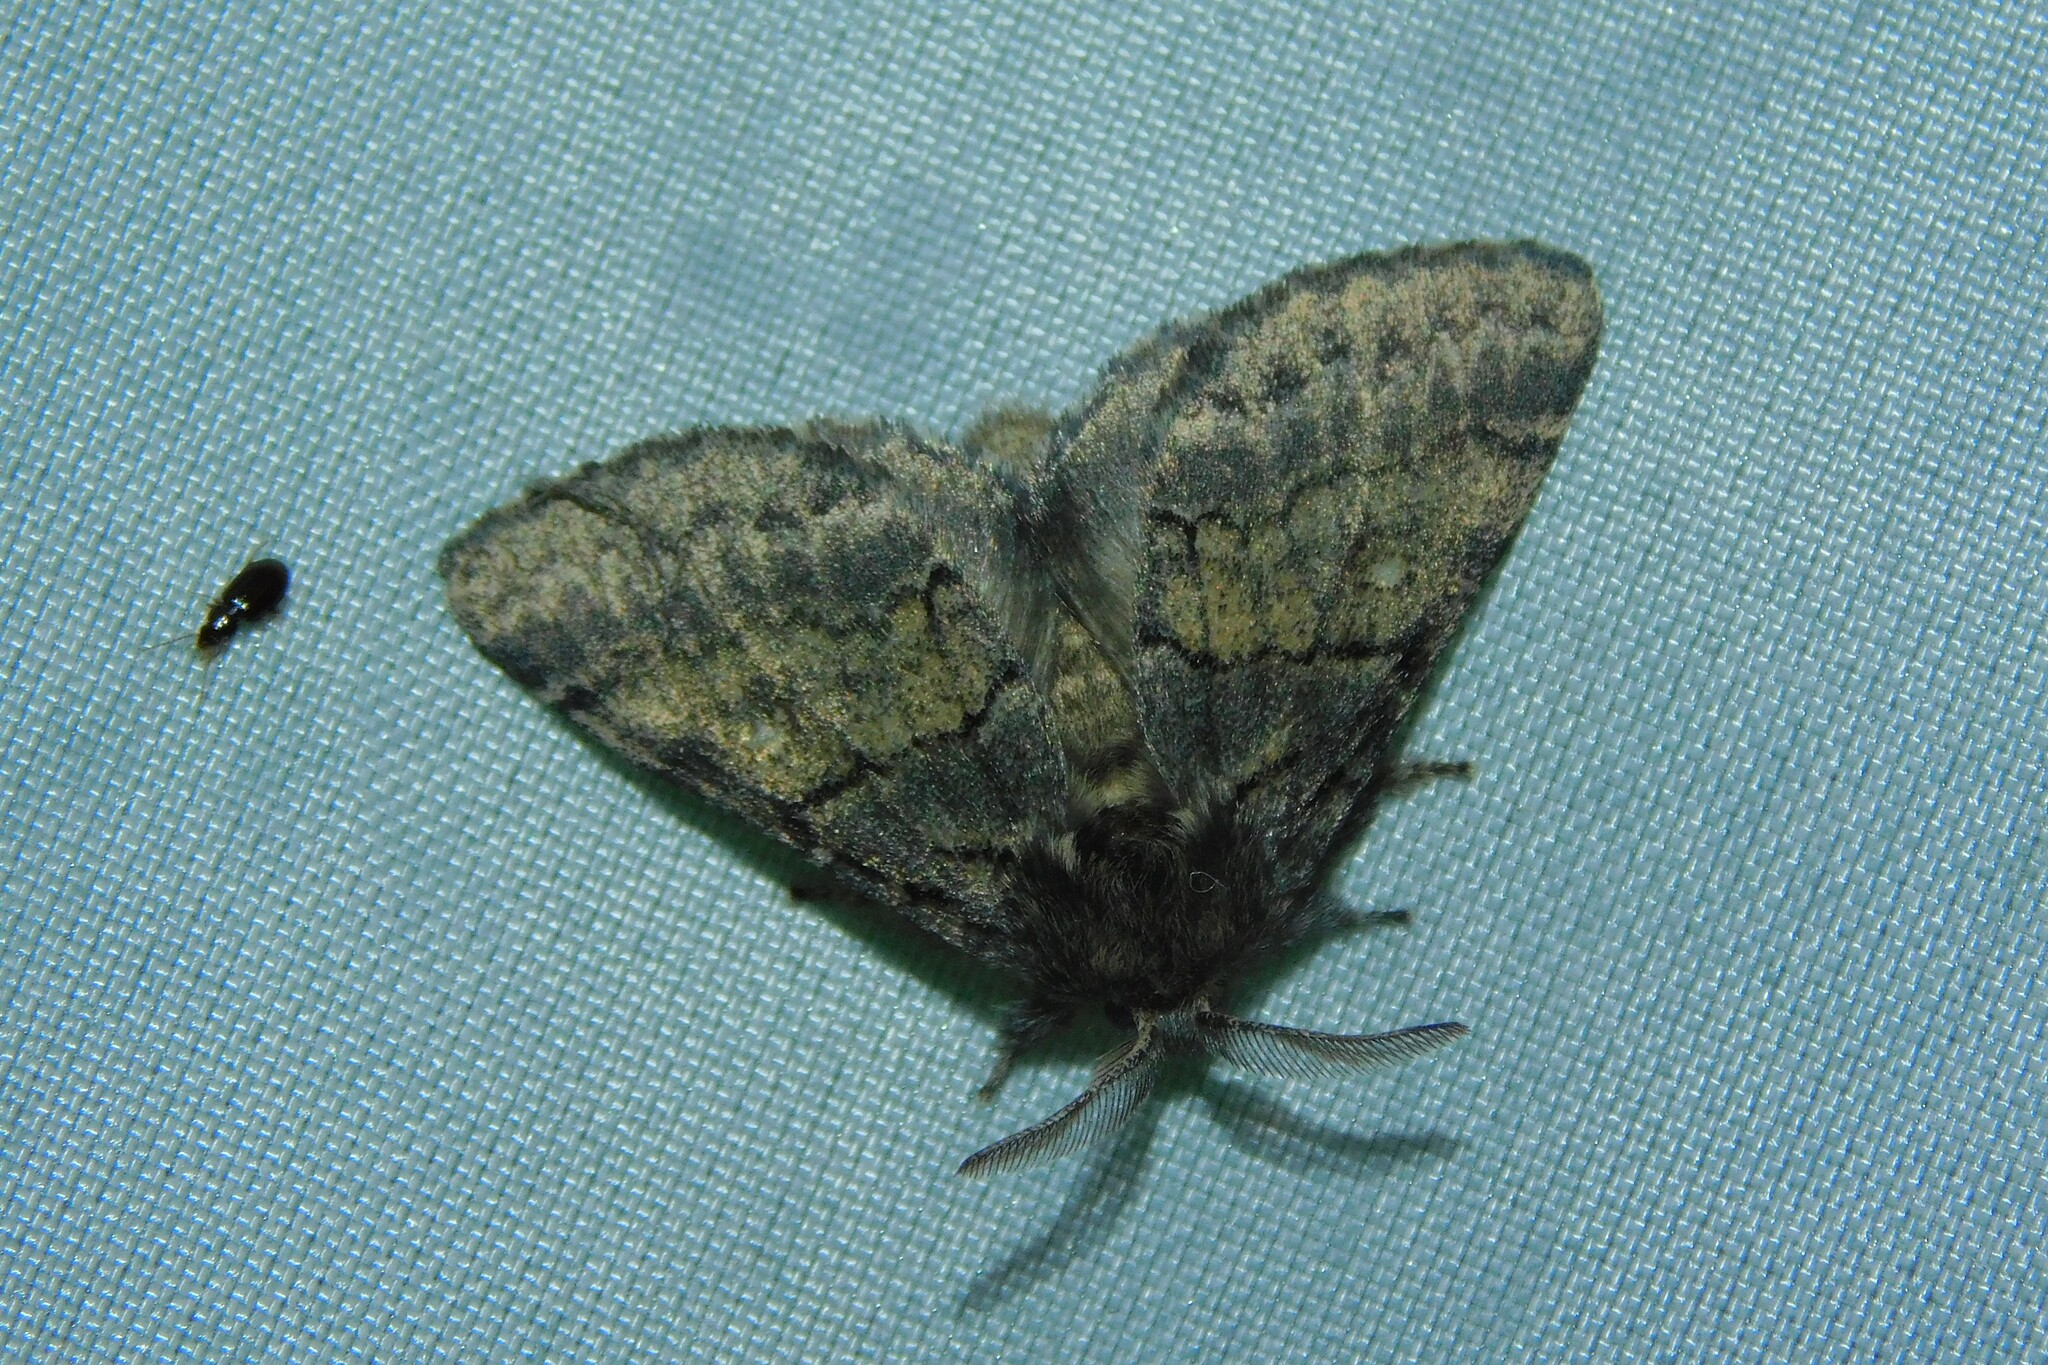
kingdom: Animalia
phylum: Arthropoda
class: Insecta
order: Lepidoptera
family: Notodontidae
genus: Gluphisia
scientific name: Gluphisia crenata
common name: Dusky marbled brown
